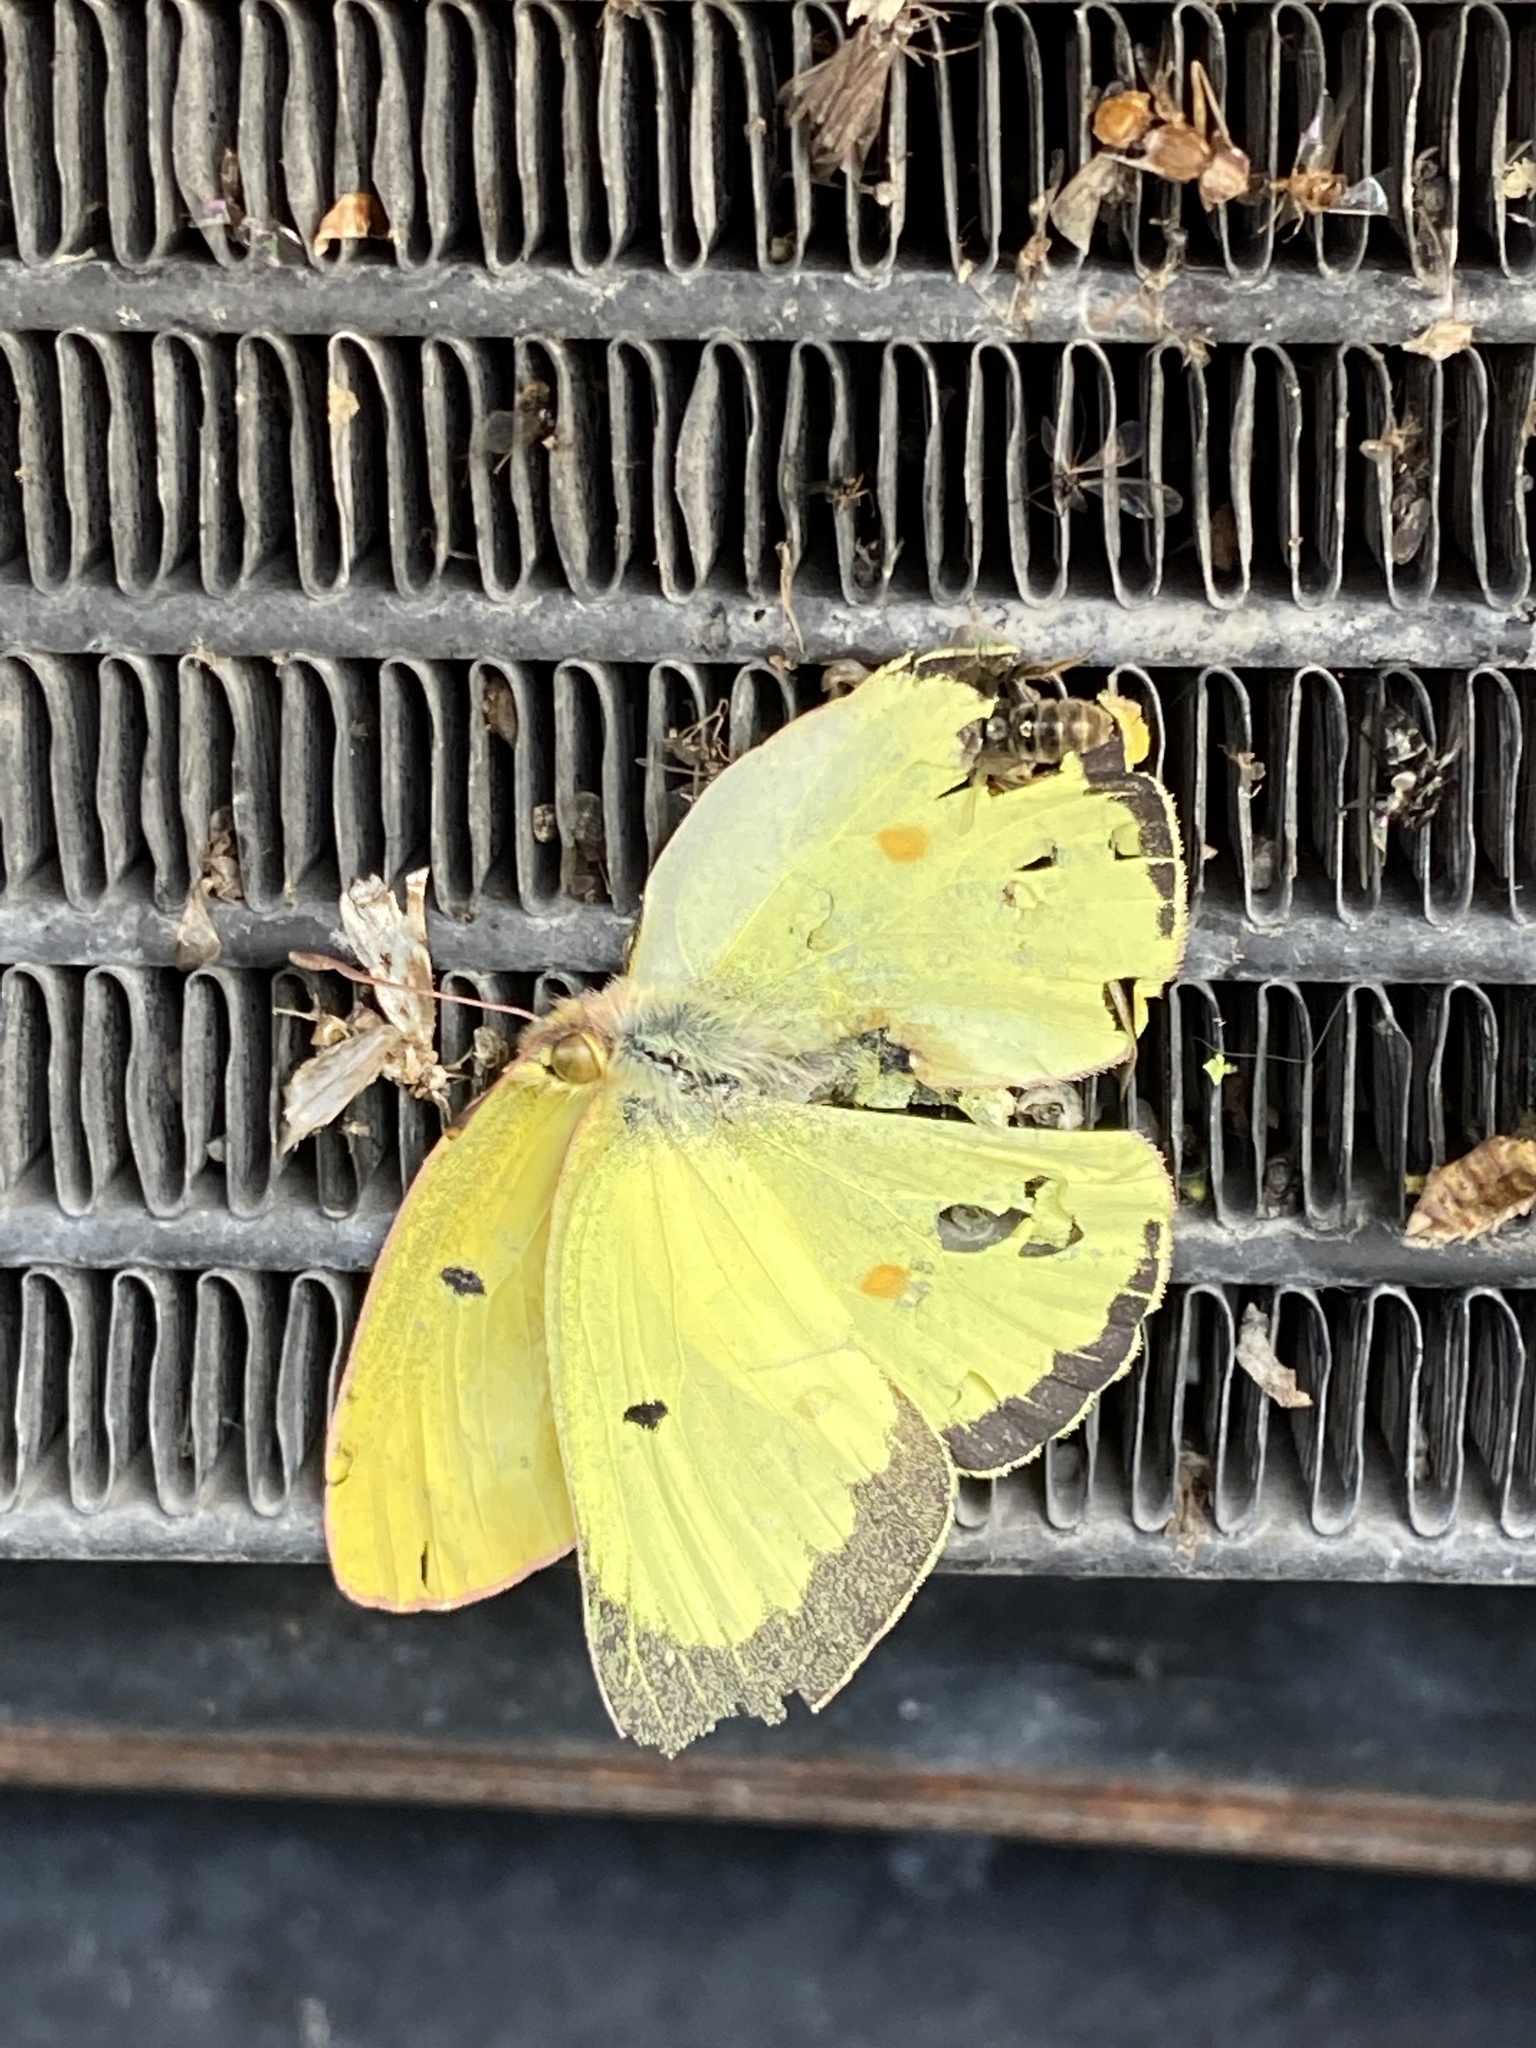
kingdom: Animalia
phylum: Arthropoda
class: Insecta
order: Lepidoptera
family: Pieridae
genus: Colias
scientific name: Colias philodice
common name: Clouded sulphur
